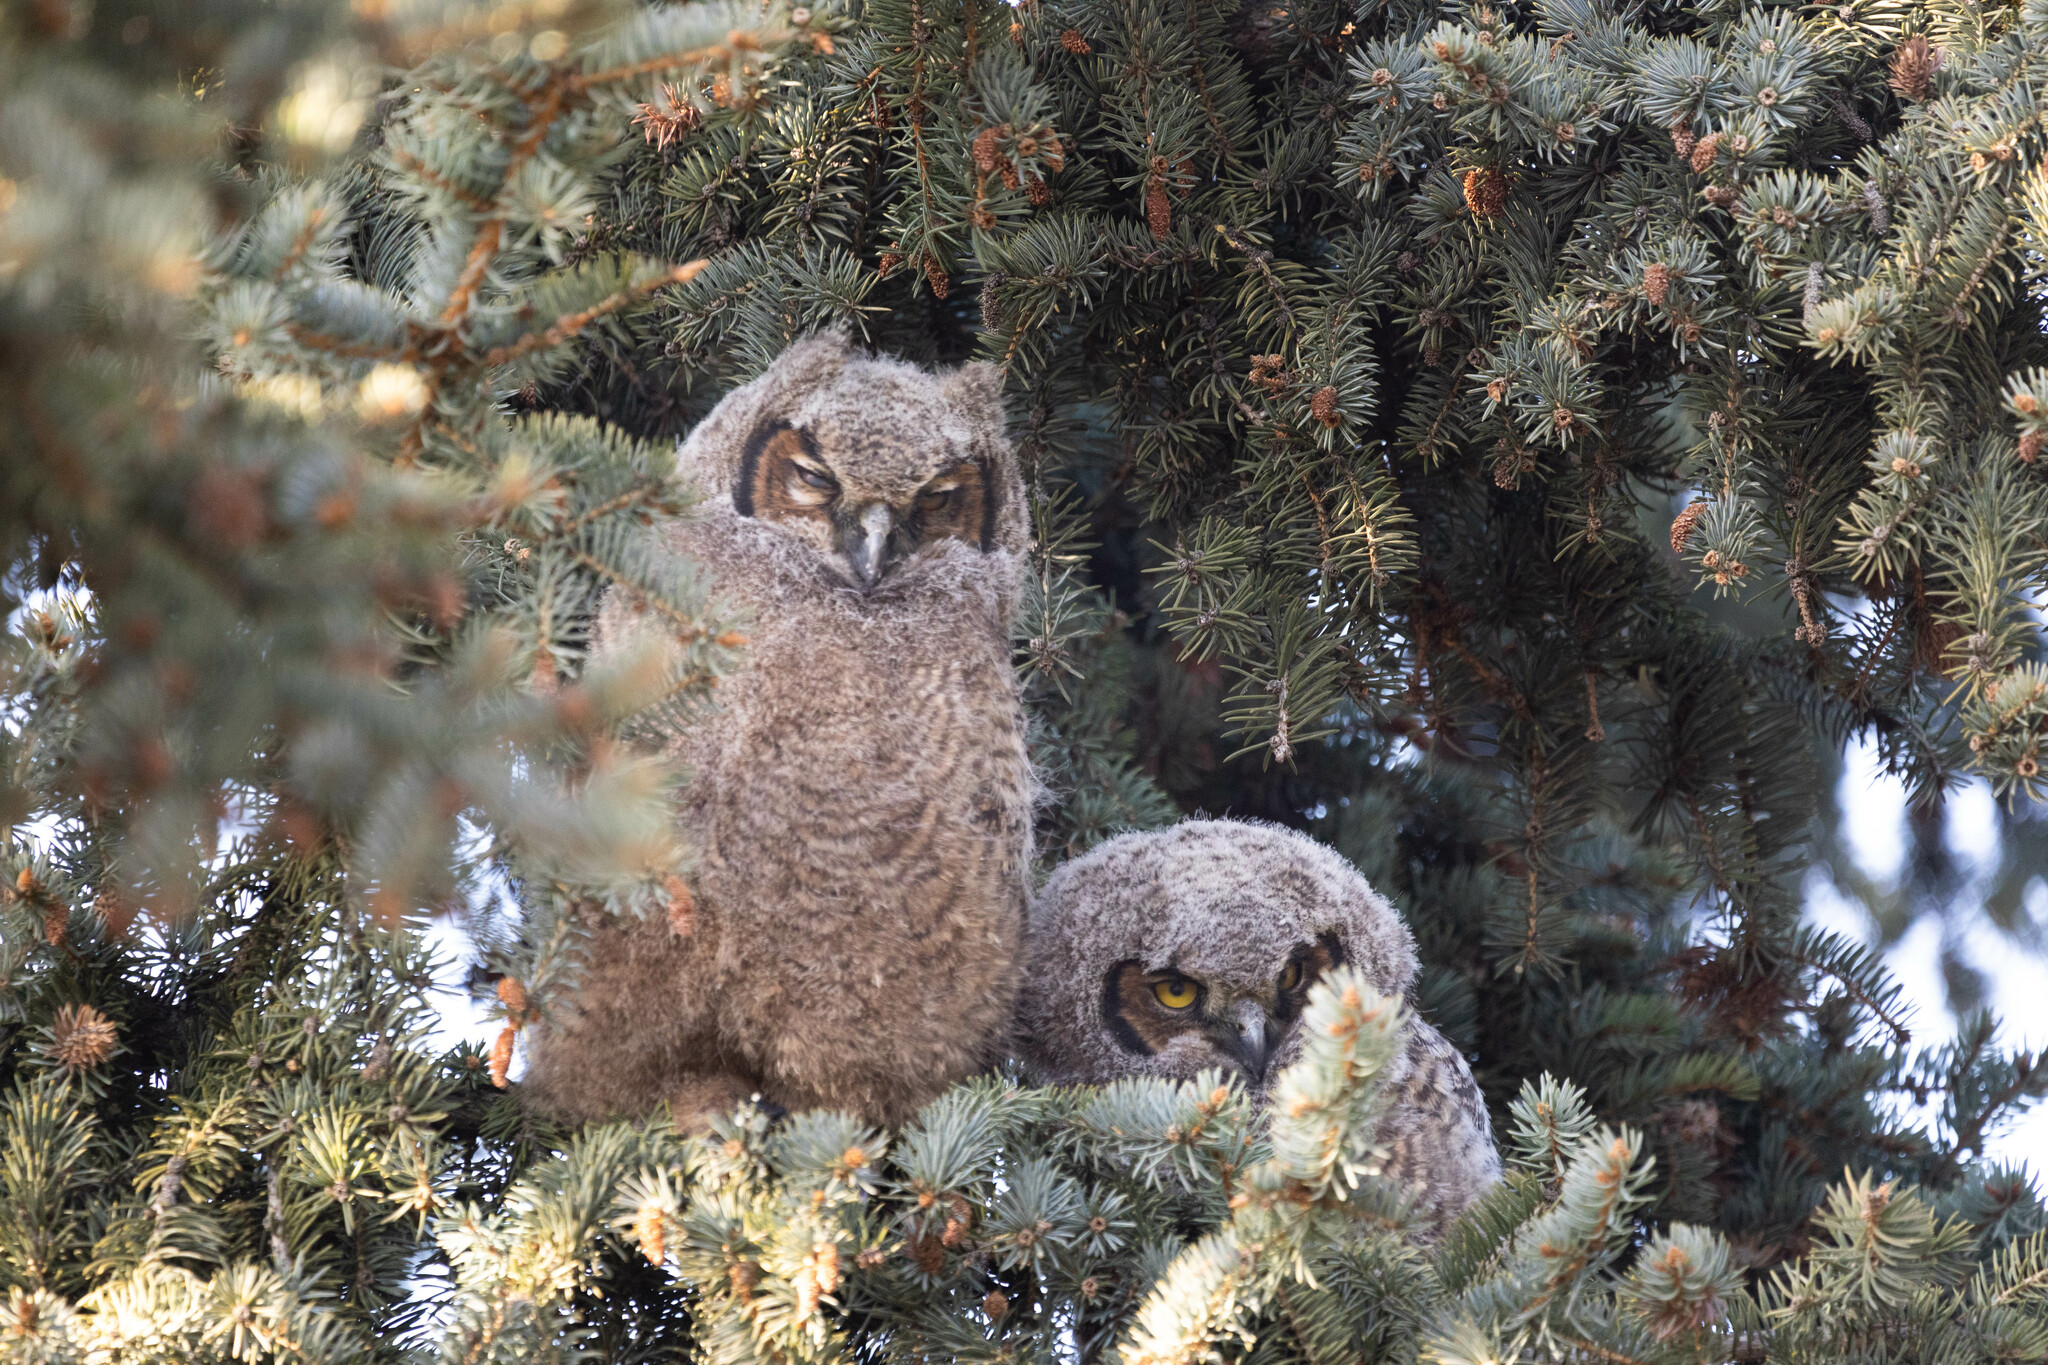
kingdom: Animalia
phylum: Chordata
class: Aves
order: Strigiformes
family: Strigidae
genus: Bubo
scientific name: Bubo virginianus
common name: Great horned owl
